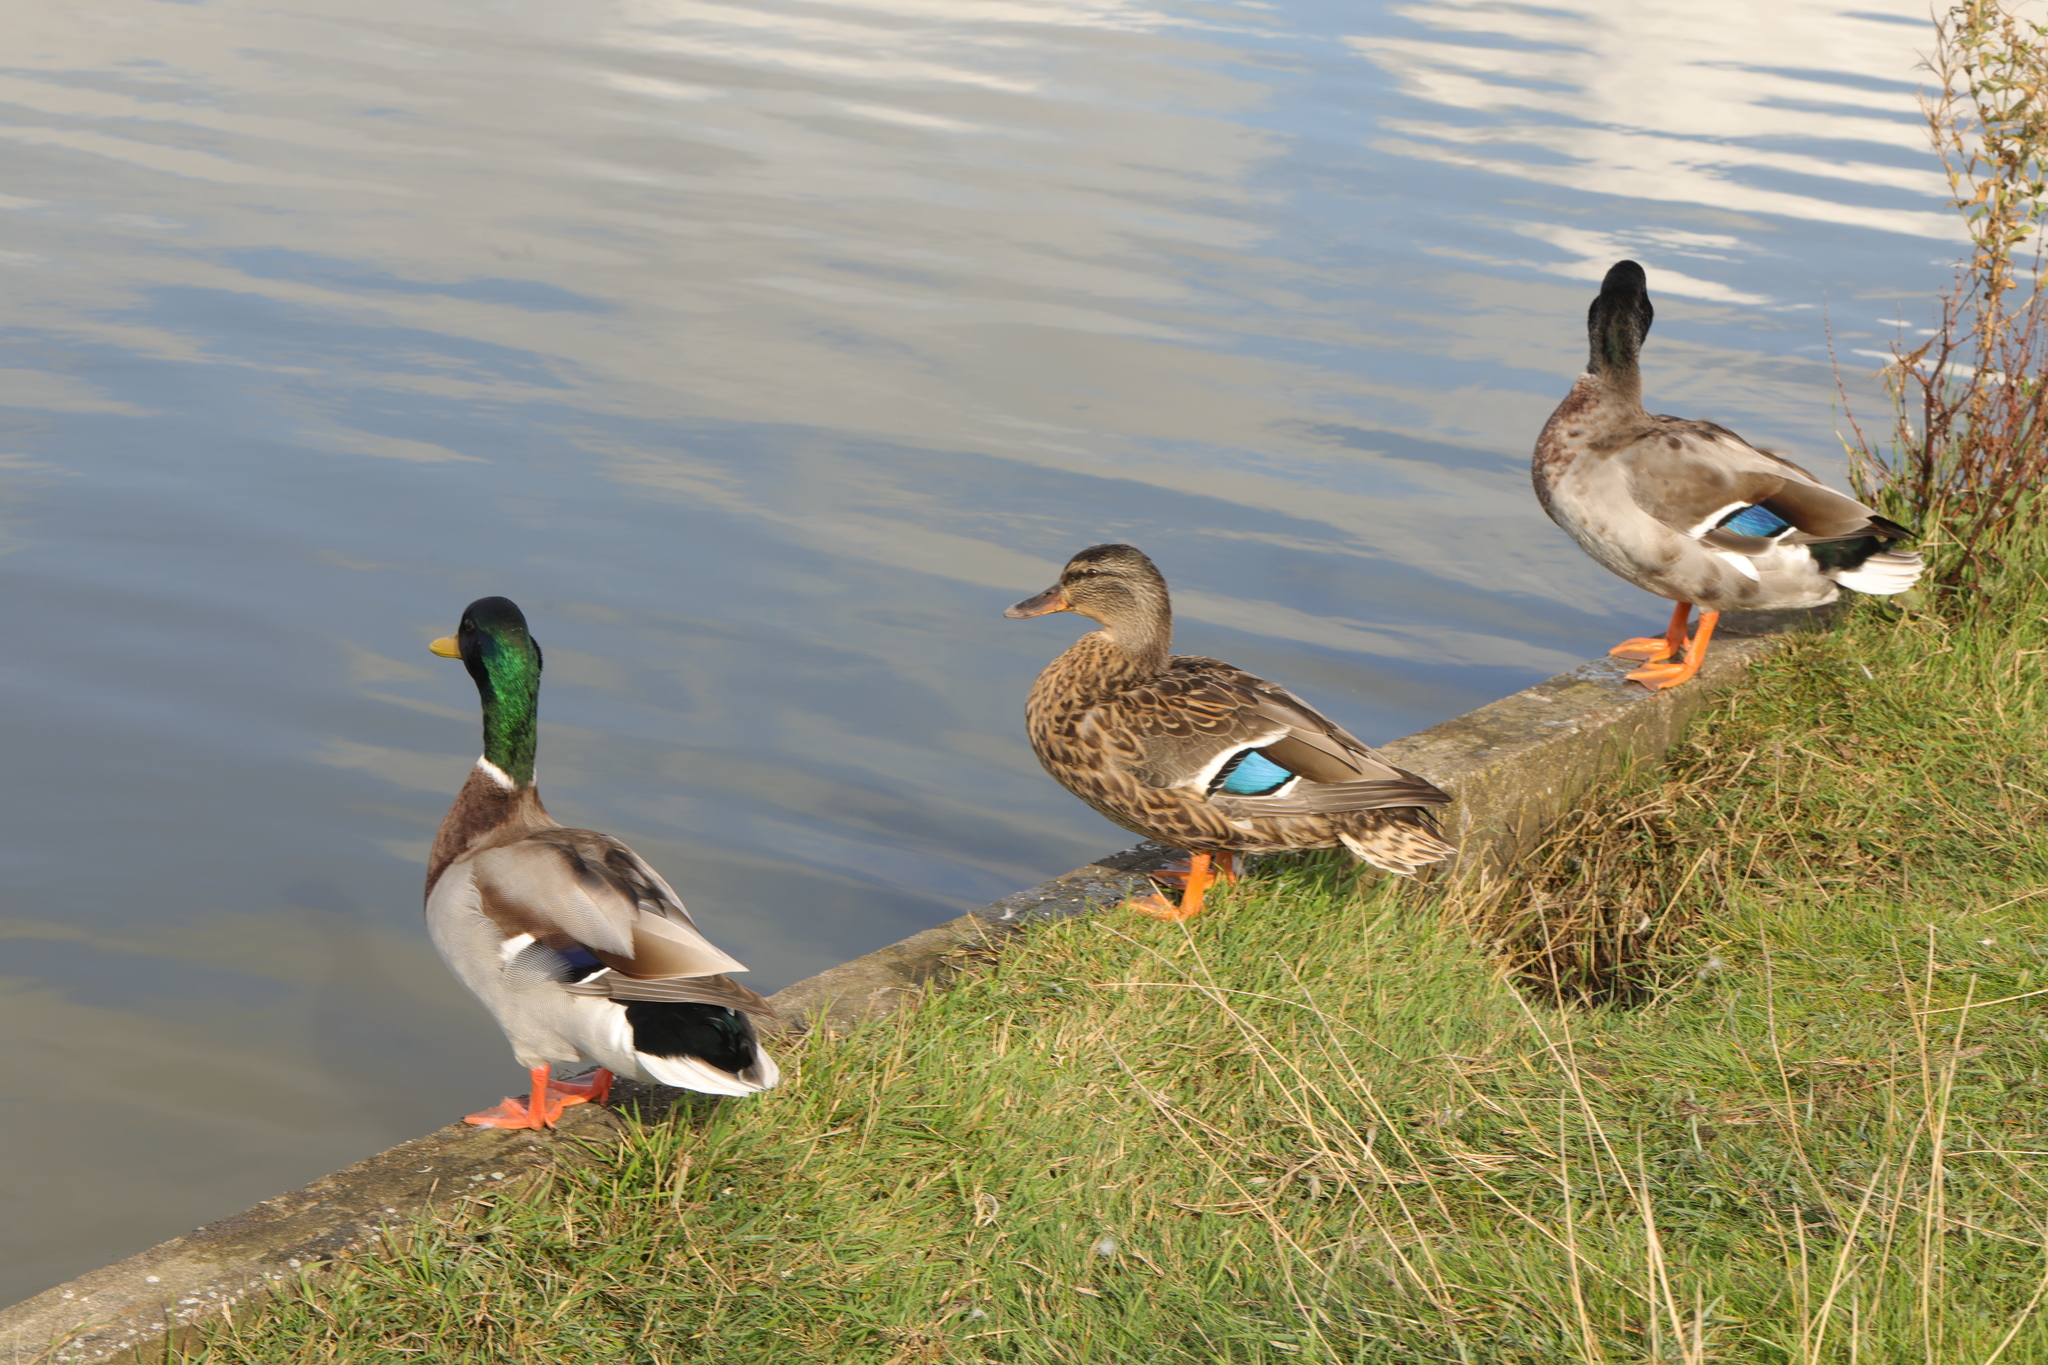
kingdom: Animalia
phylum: Chordata
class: Aves
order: Anseriformes
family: Anatidae
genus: Anas
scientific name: Anas platyrhynchos
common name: Mallard
